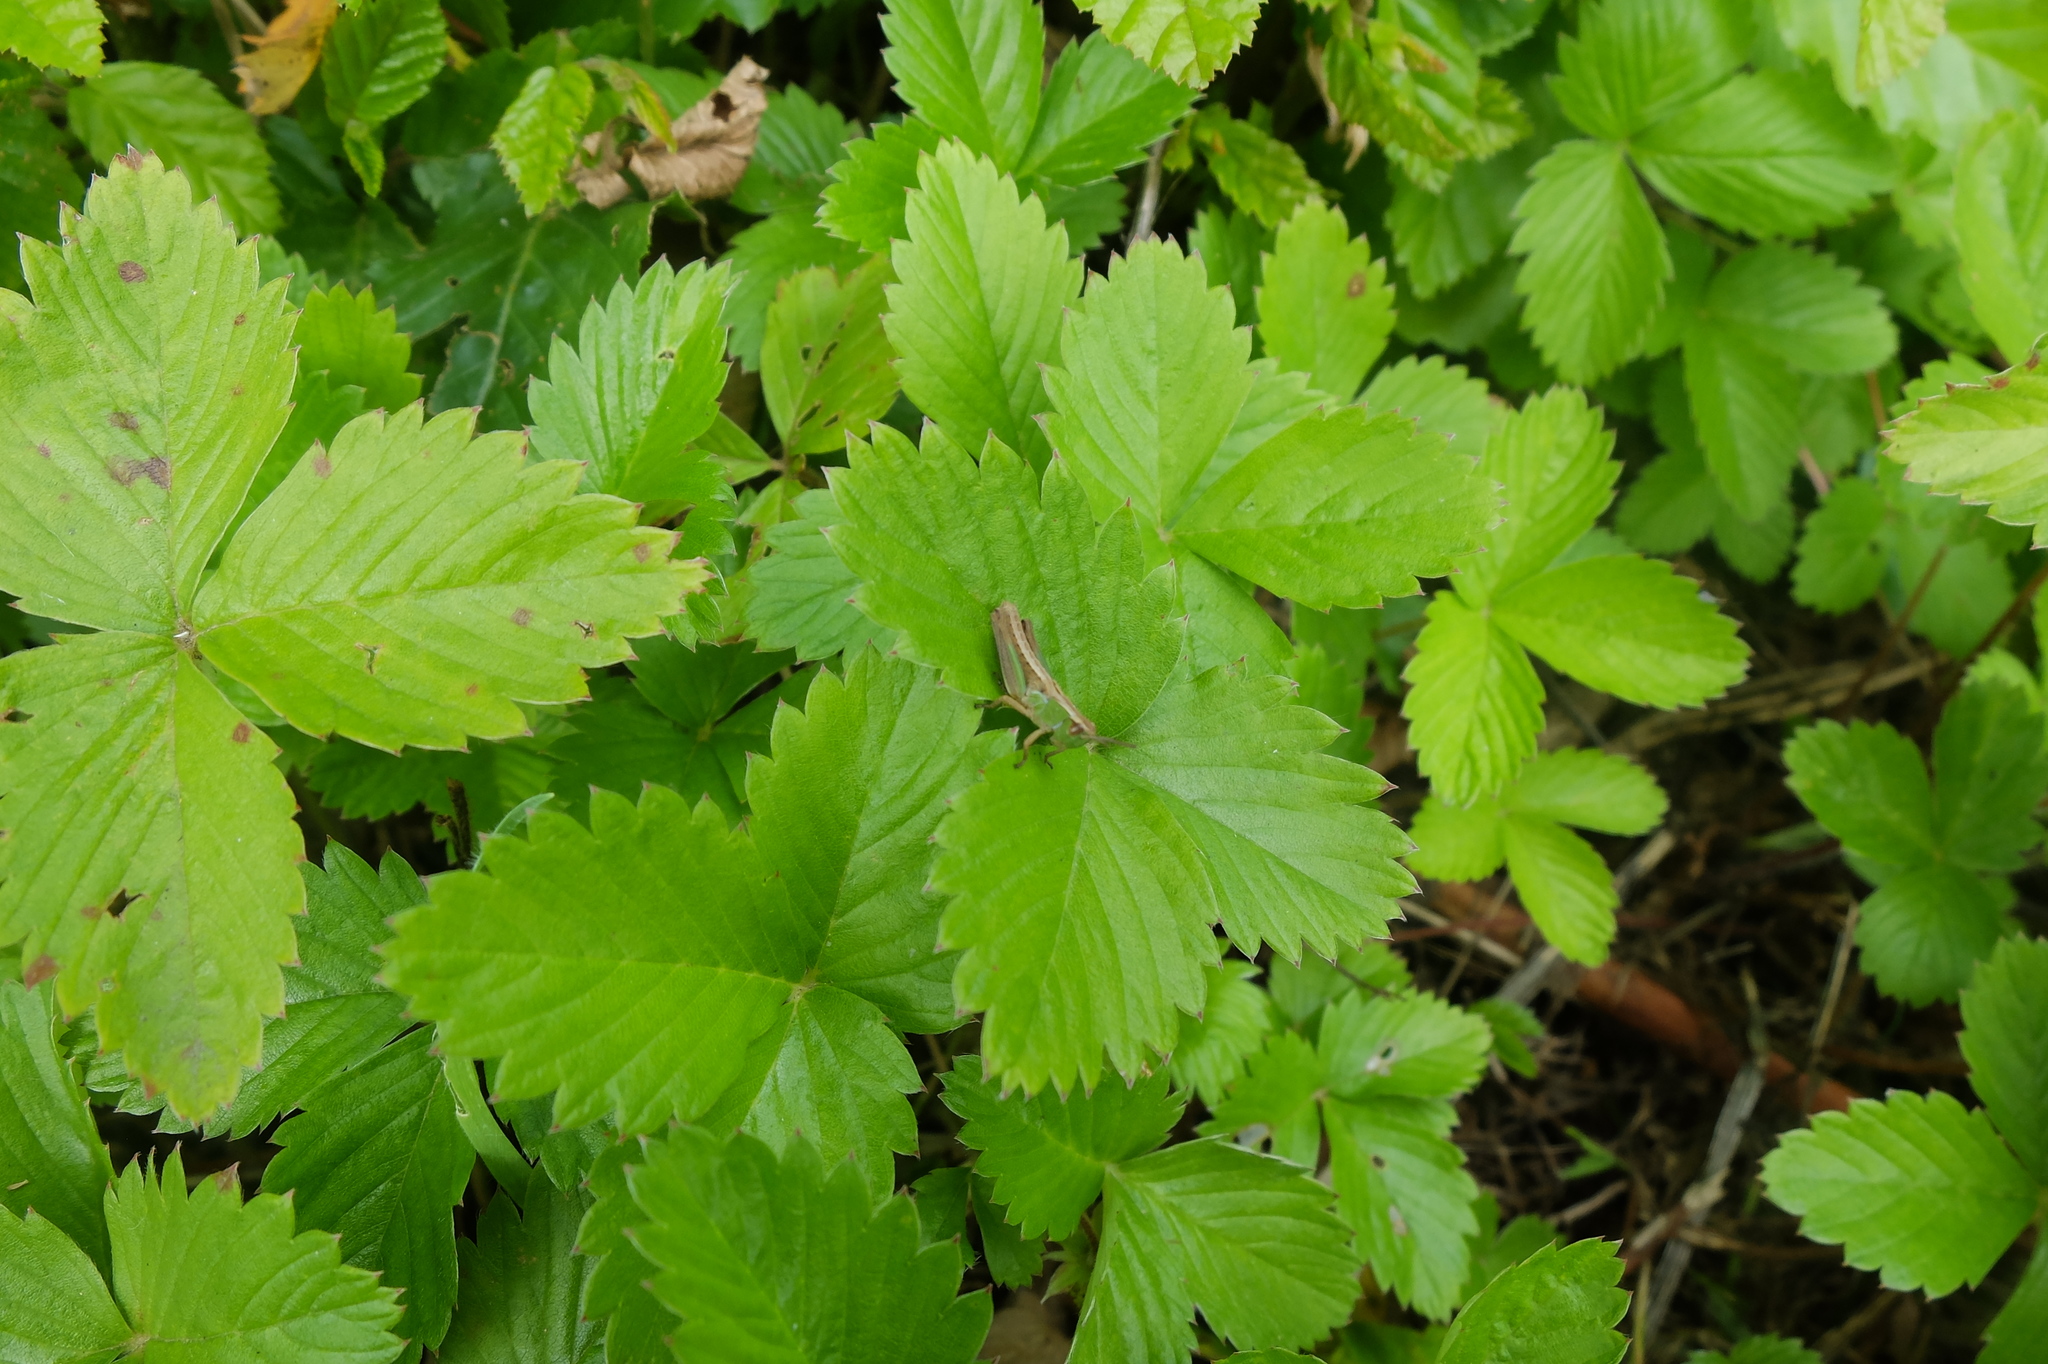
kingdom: Animalia
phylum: Arthropoda
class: Insecta
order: Orthoptera
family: Acrididae
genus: Pseudochorthippus
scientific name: Pseudochorthippus parallelus
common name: Meadow grasshopper
